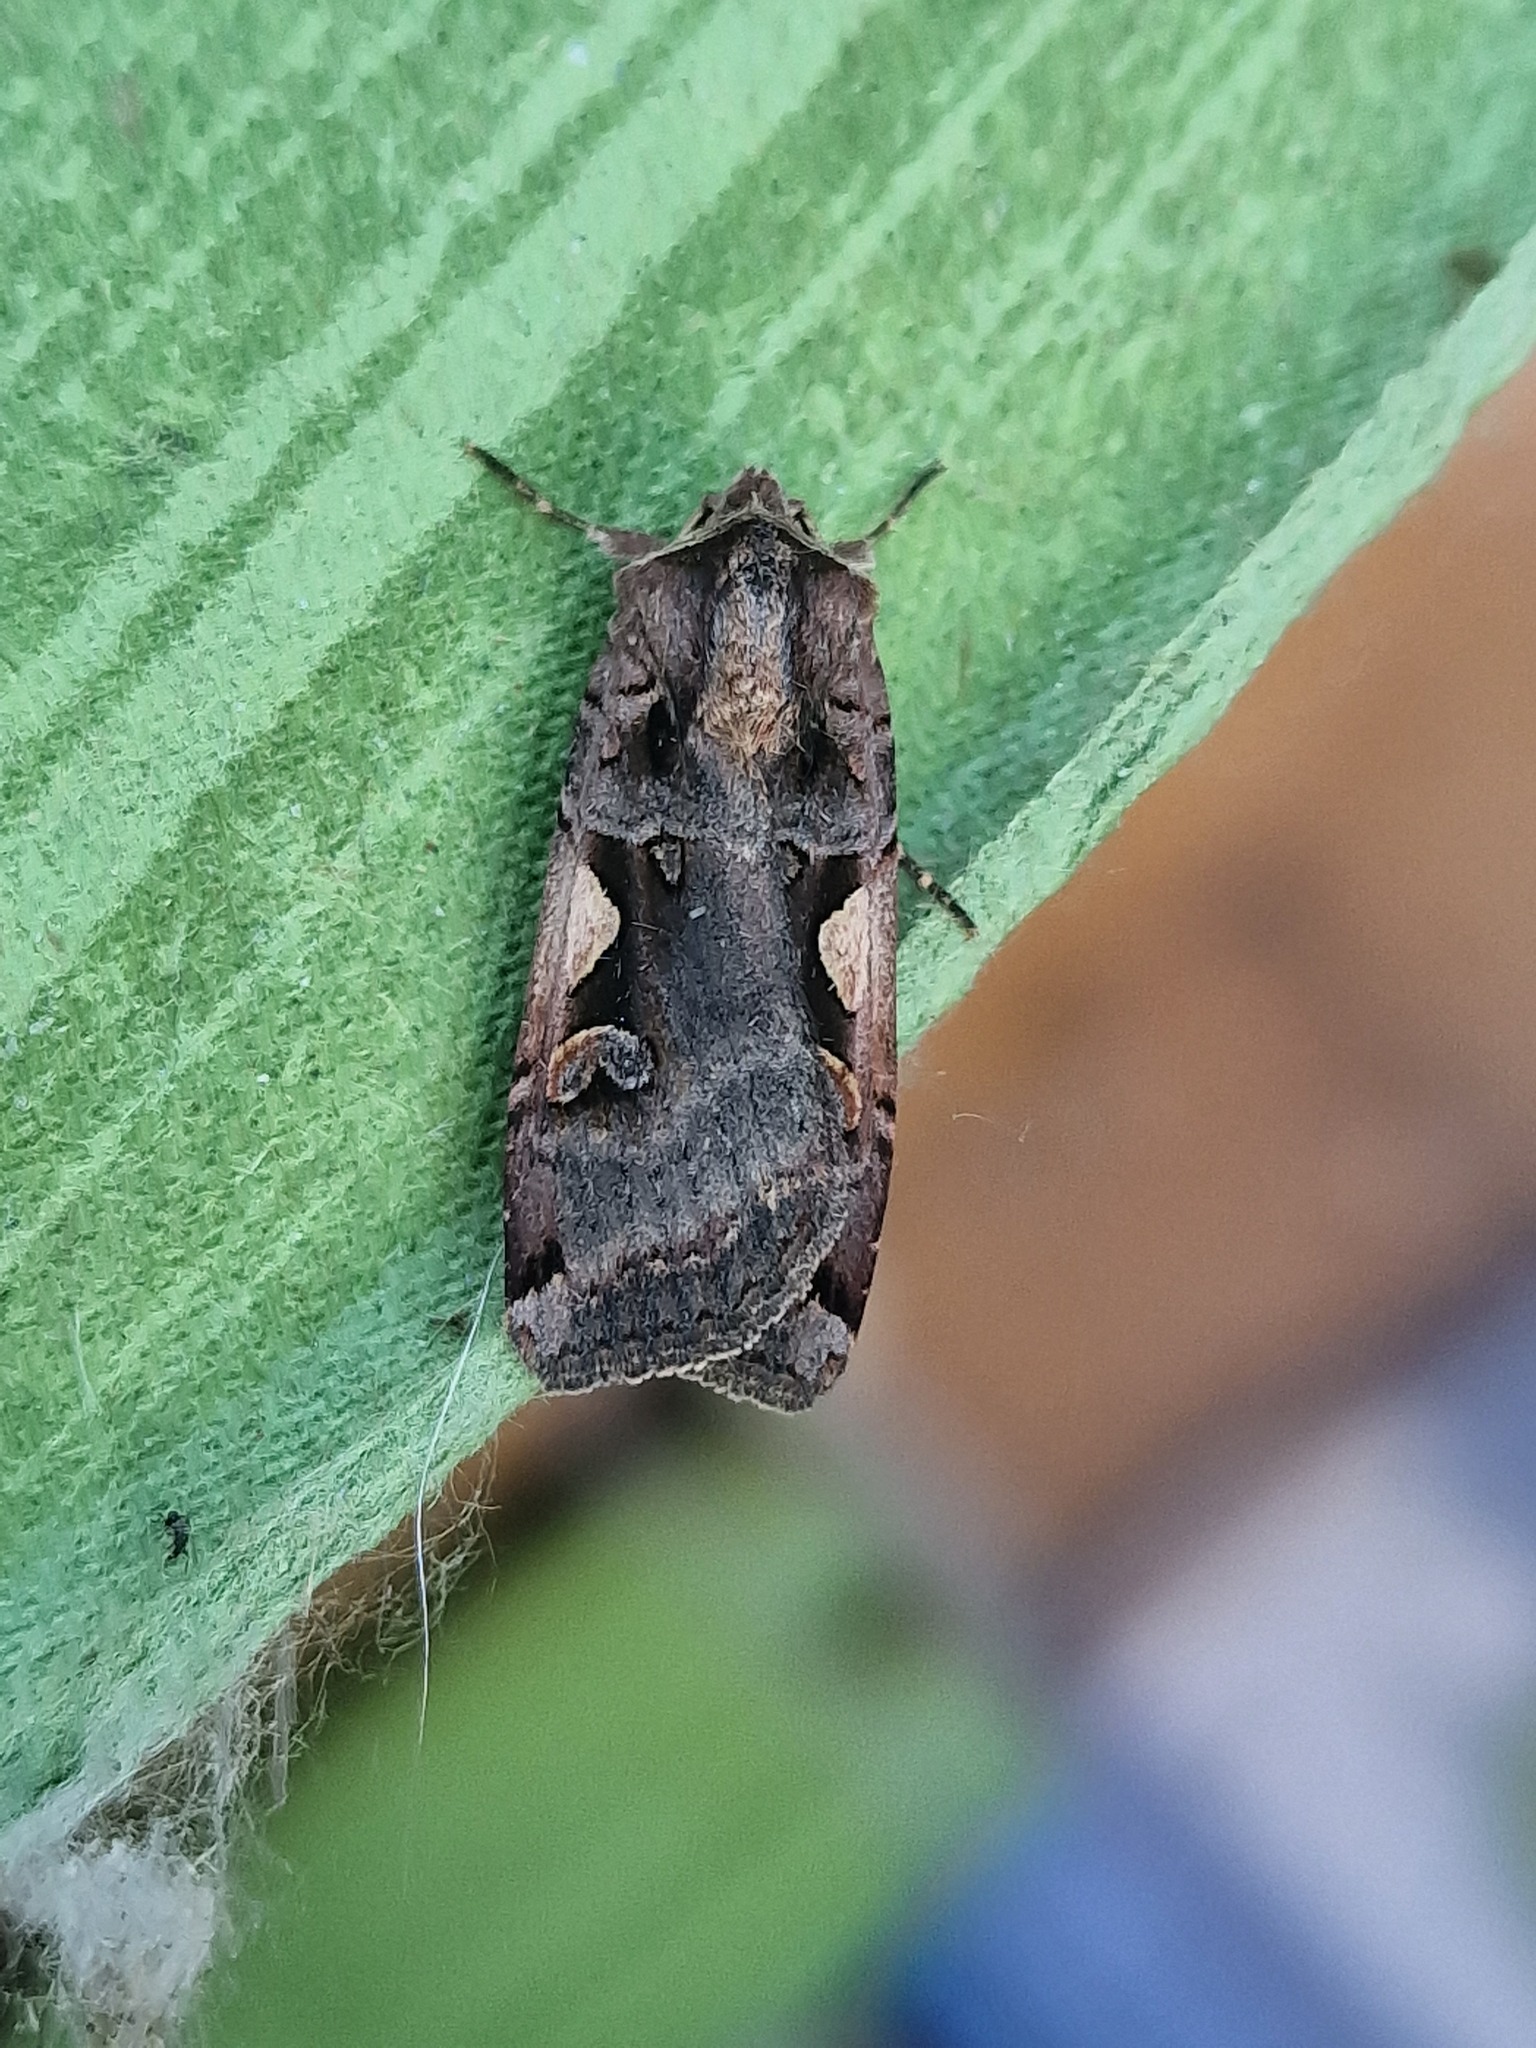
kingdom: Animalia
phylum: Arthropoda
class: Insecta
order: Lepidoptera
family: Noctuidae
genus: Xestia
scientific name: Xestia c-nigrum
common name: Setaceous hebrew character
